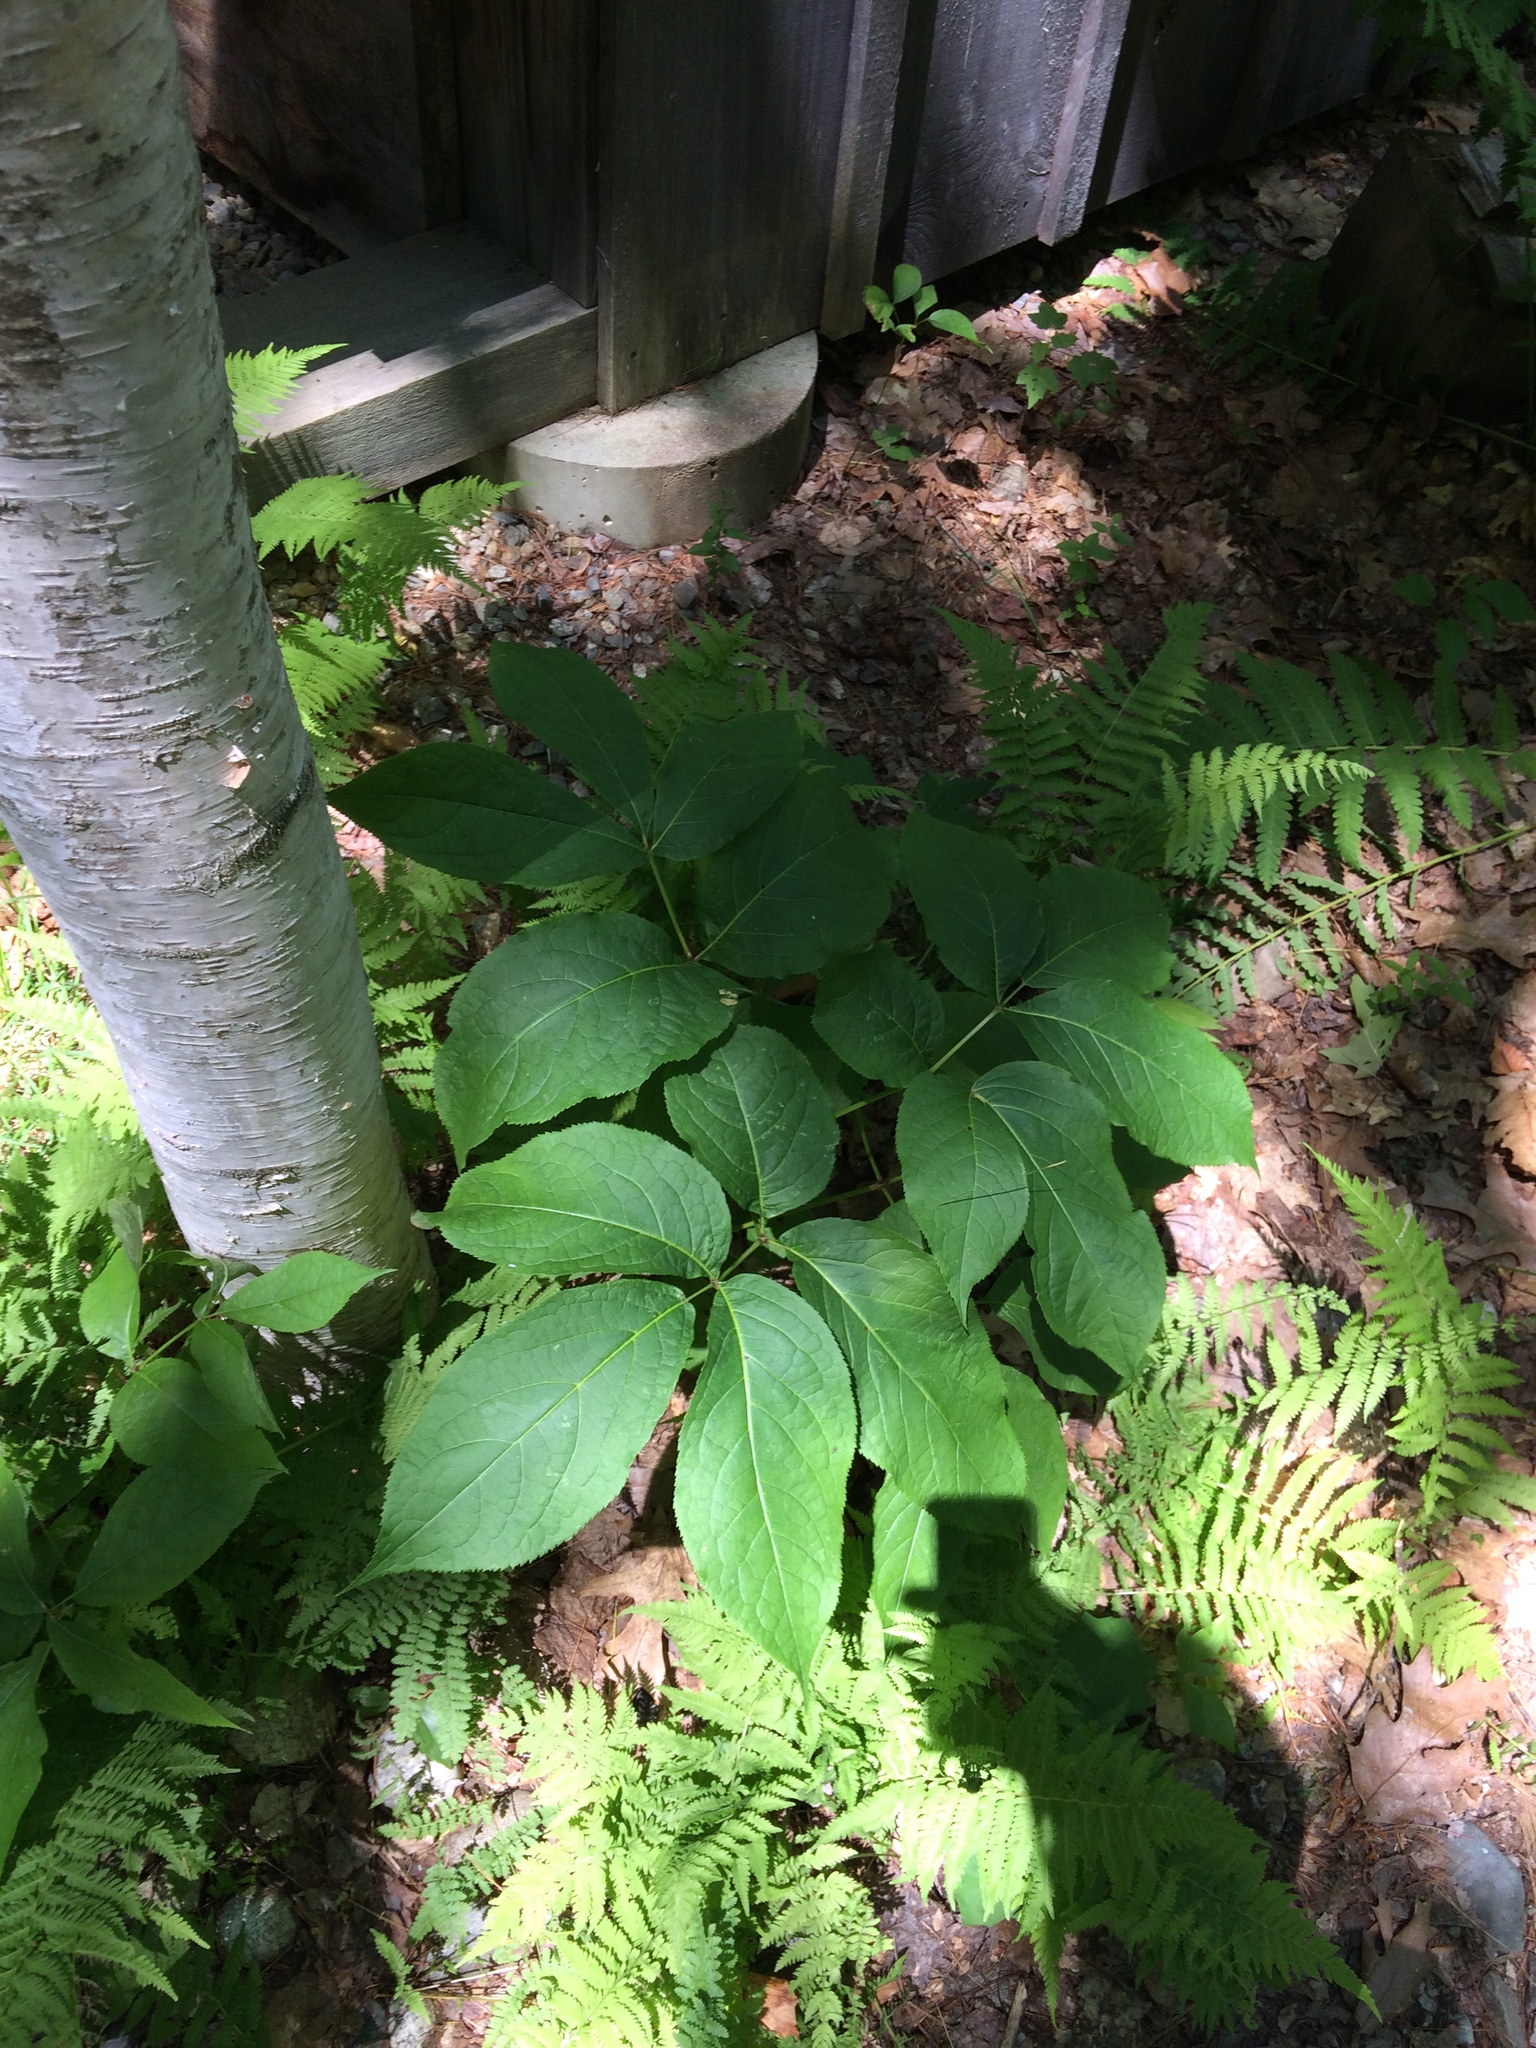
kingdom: Plantae
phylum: Tracheophyta
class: Magnoliopsida
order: Apiales
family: Araliaceae
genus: Aralia
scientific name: Aralia nudicaulis
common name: Wild sarsaparilla
